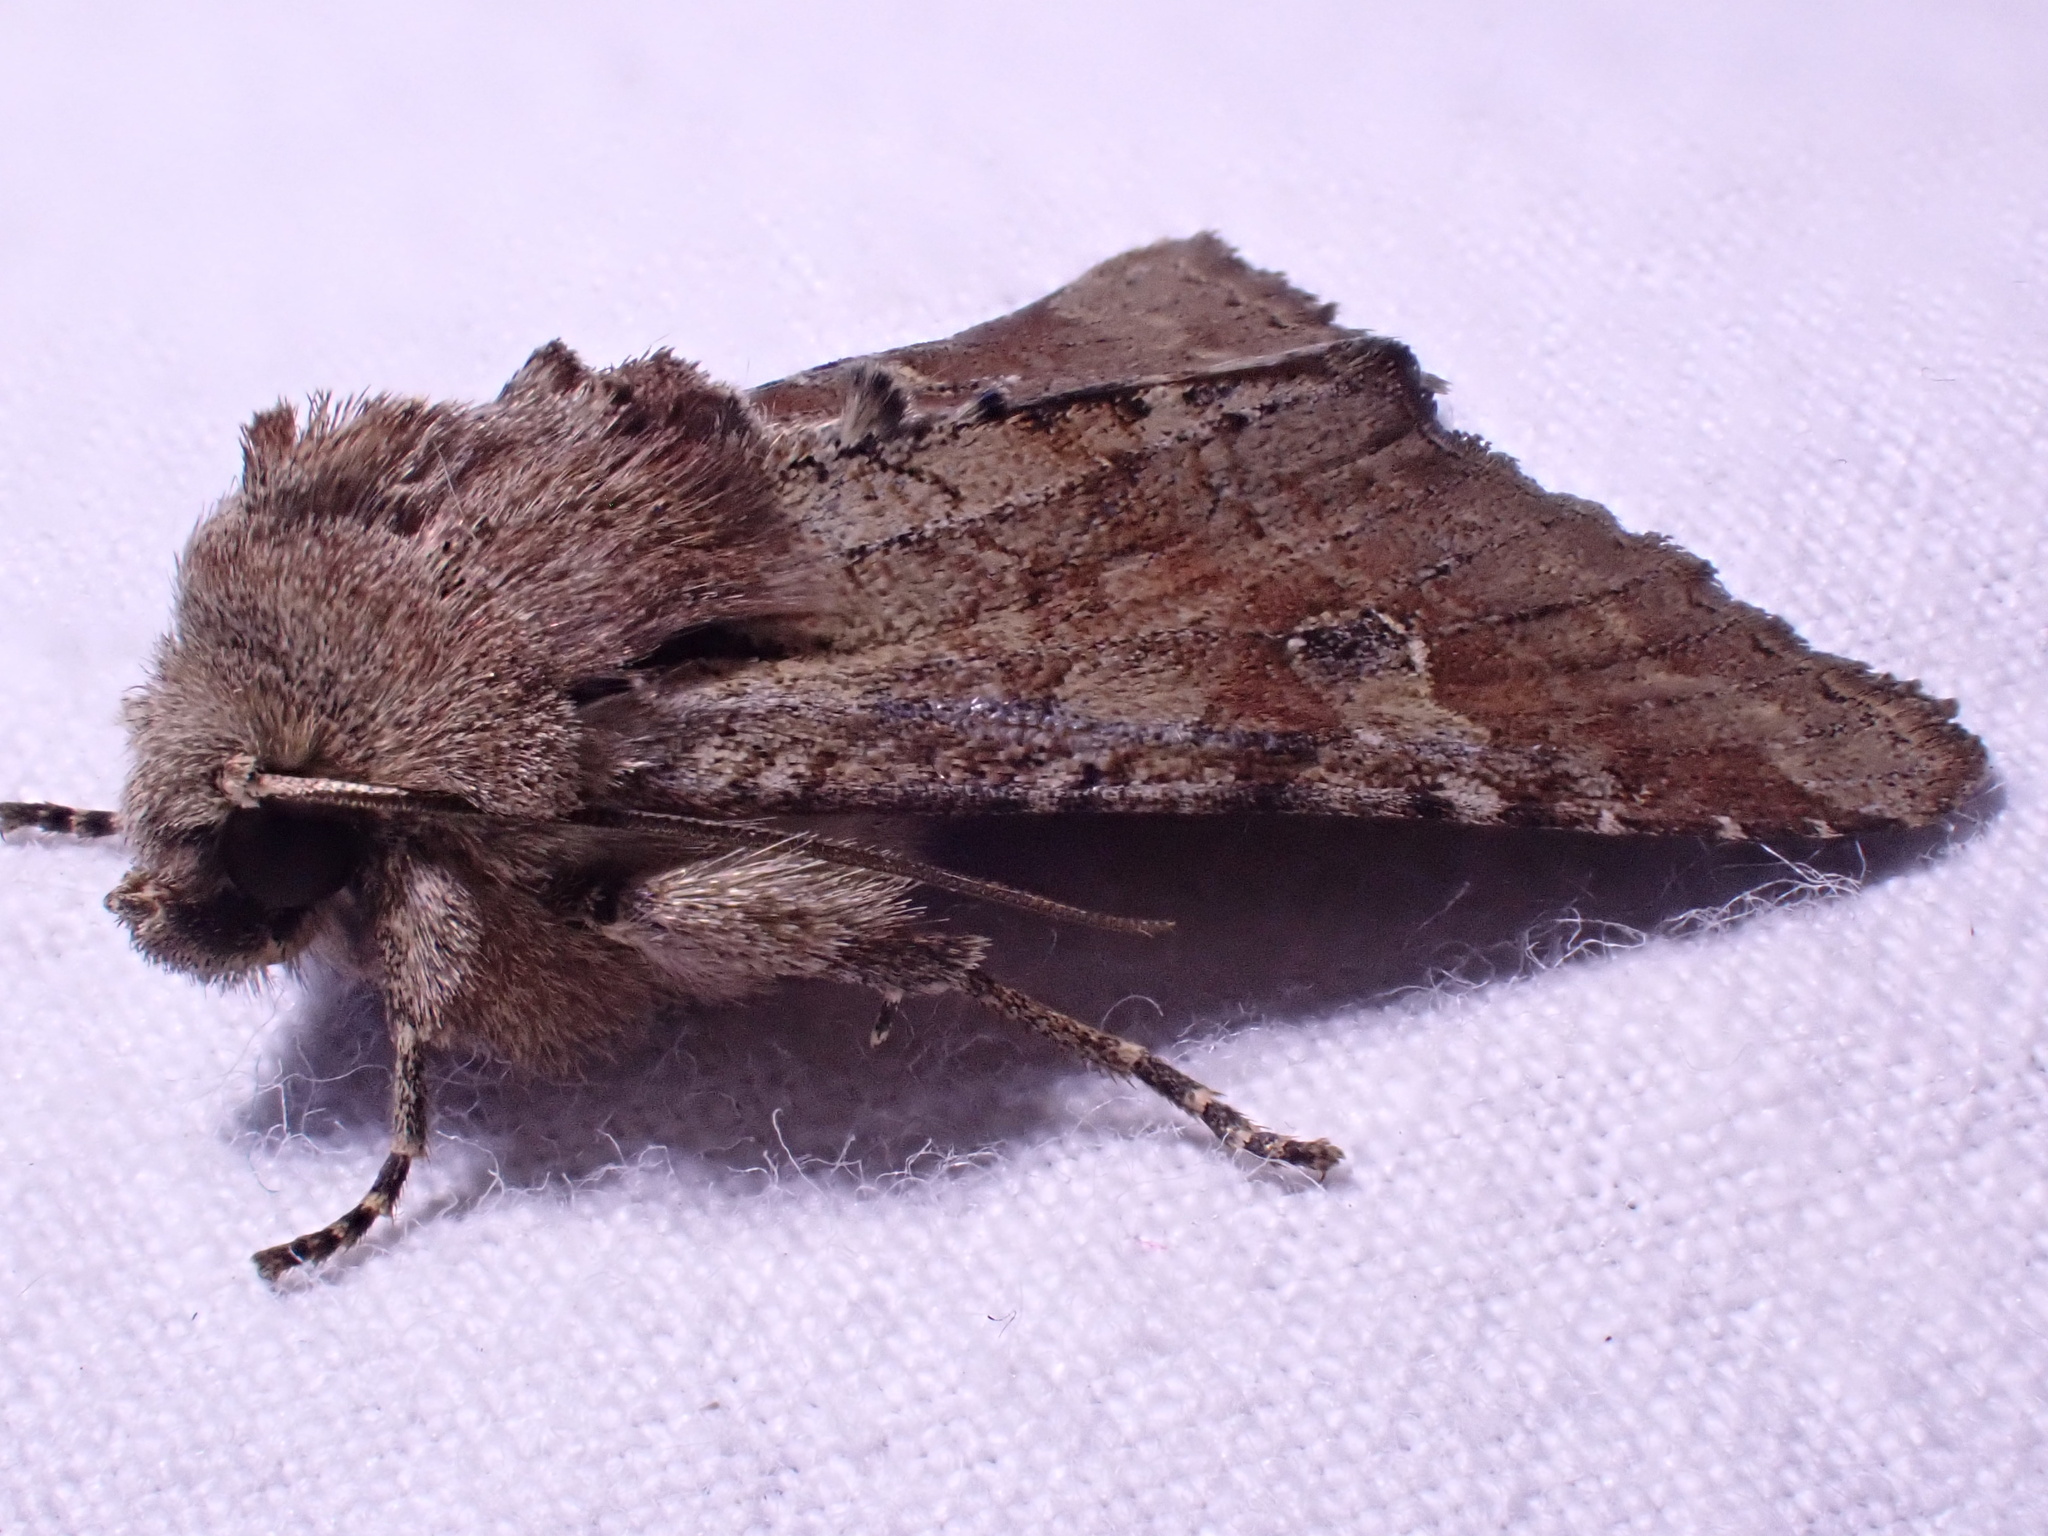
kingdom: Animalia
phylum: Arthropoda
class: Insecta
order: Lepidoptera
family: Noctuidae
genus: Apamea
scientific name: Apamea sordens
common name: Rustic shoulder-knot
